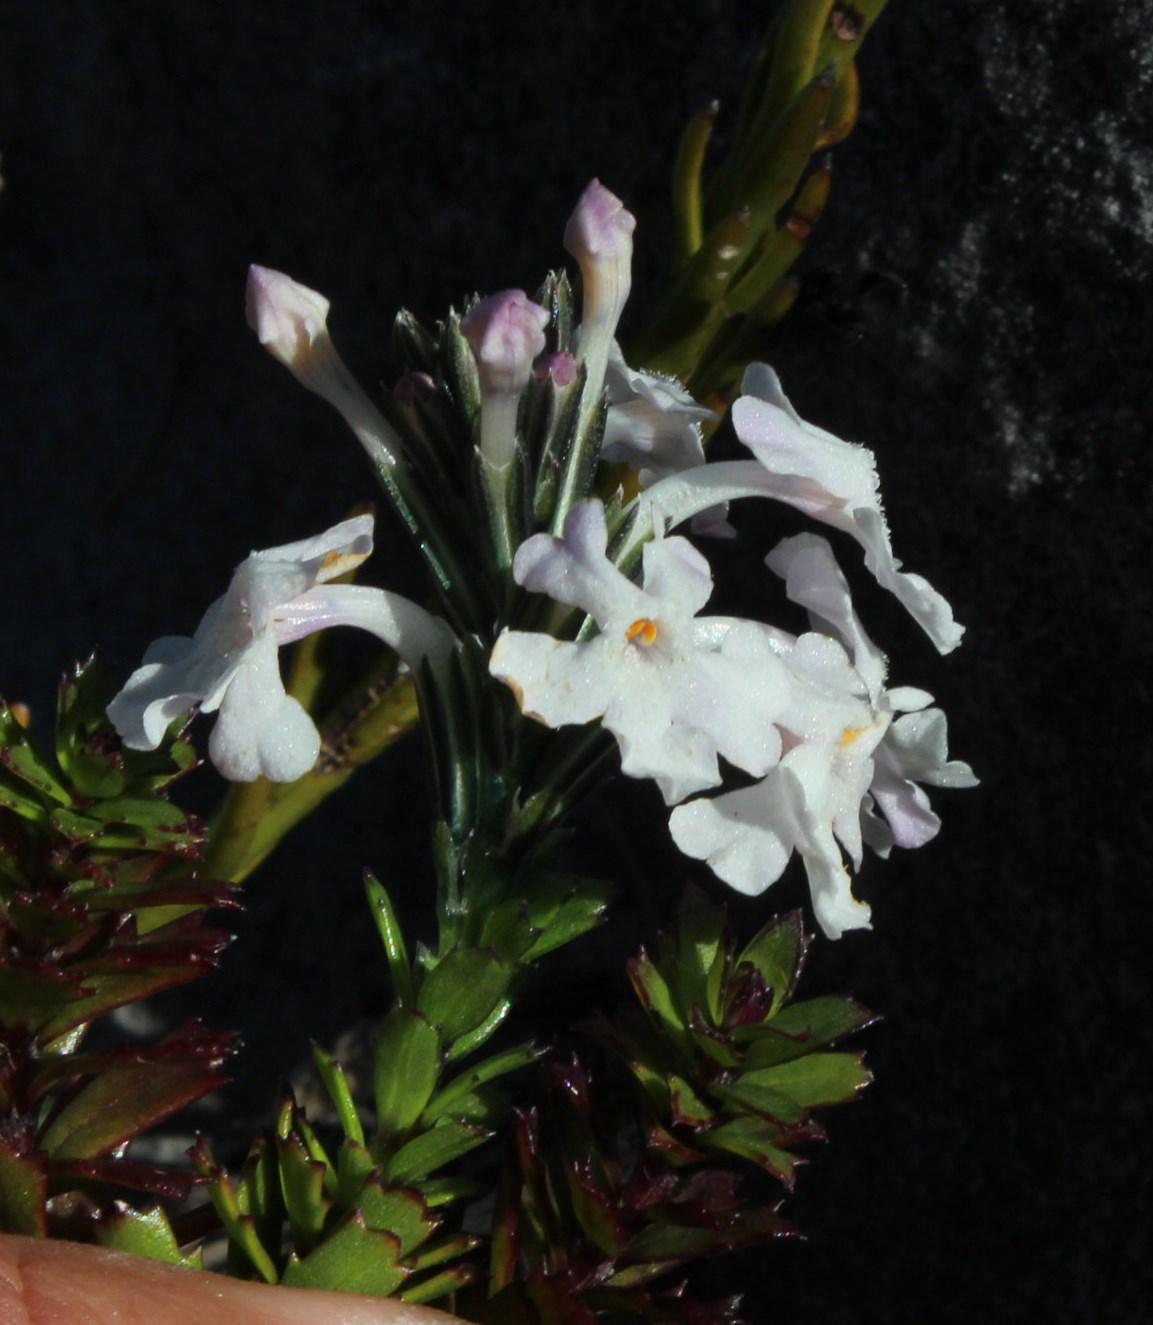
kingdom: Plantae
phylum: Tracheophyta
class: Magnoliopsida
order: Lamiales
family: Verbenaceae
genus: Chascanum
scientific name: Chascanum cernuum
